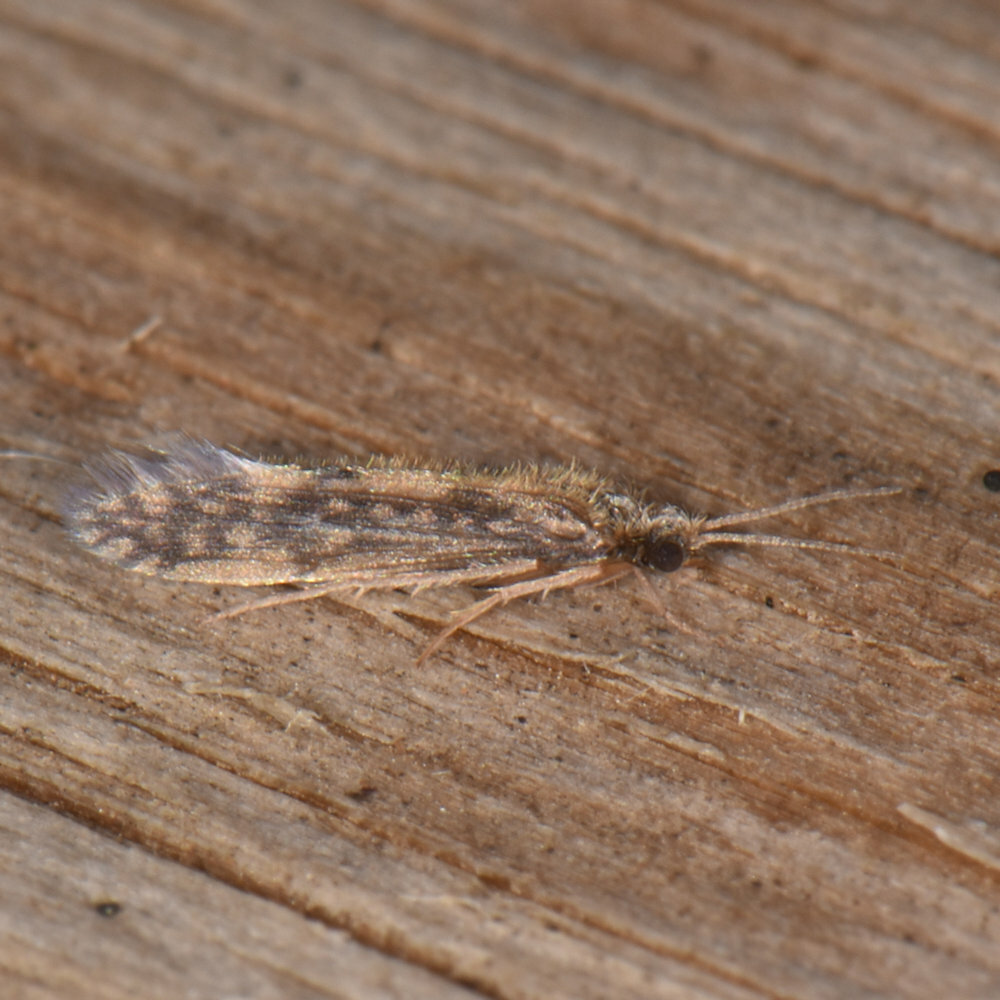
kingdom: Animalia
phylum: Arthropoda
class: Insecta
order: Trichoptera
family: Hydroptilidae
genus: Agraylea
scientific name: Agraylea multipunctata
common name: Salt and pepper microcaddisfly
